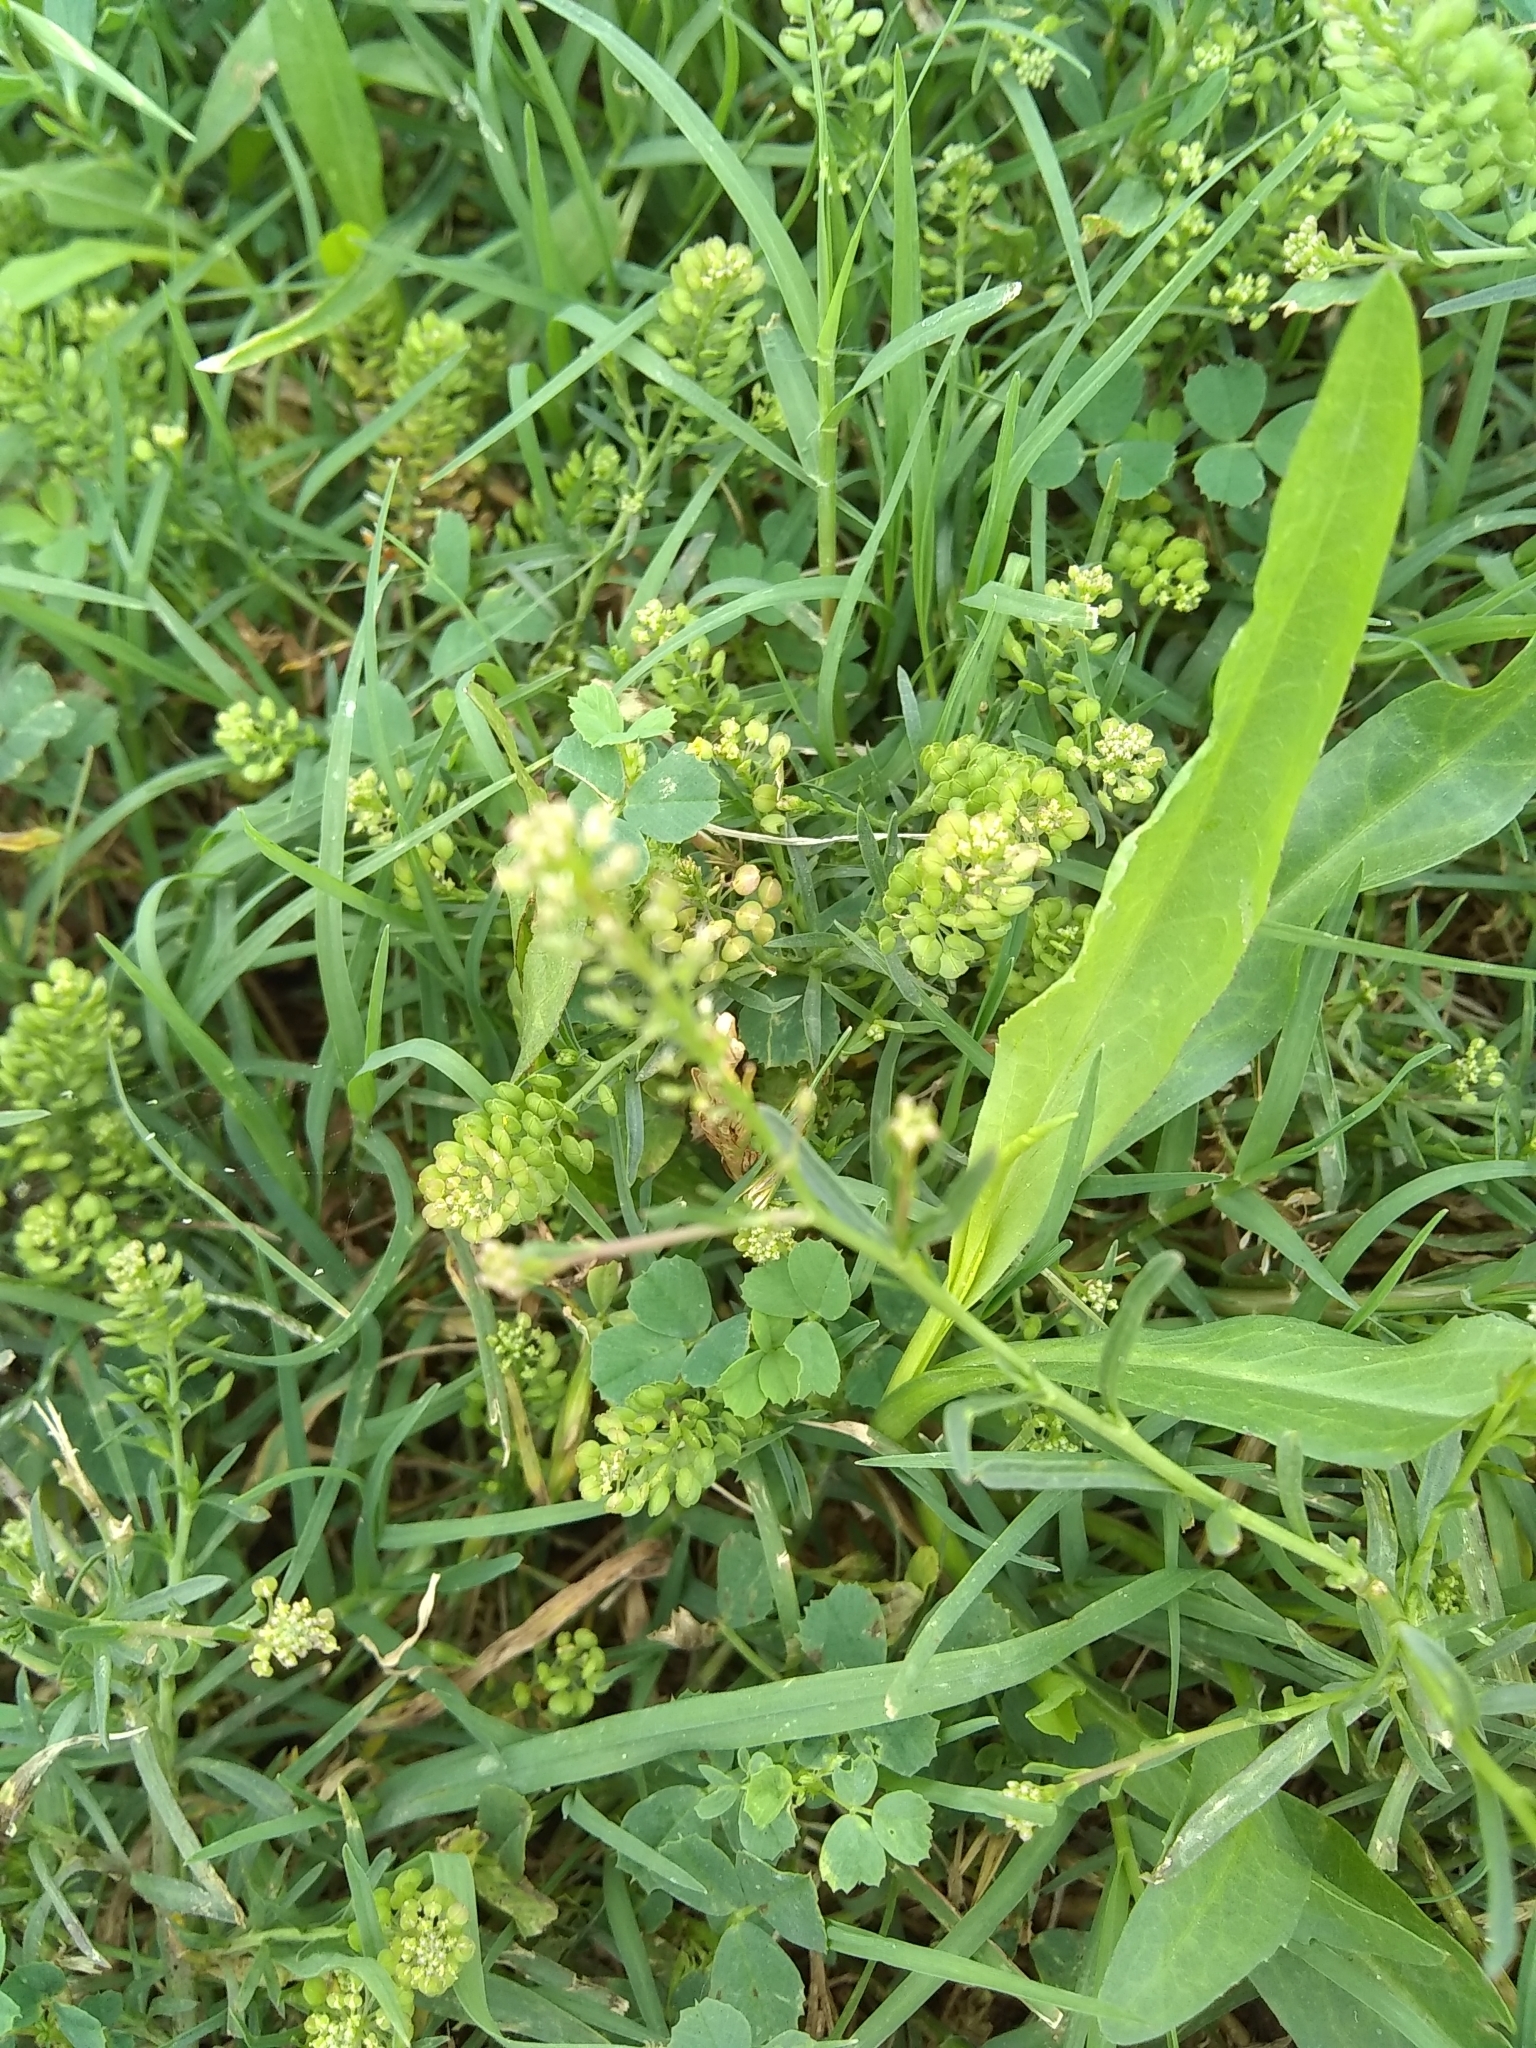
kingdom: Plantae
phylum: Tracheophyta
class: Magnoliopsida
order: Brassicales
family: Brassicaceae
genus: Lepidium
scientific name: Lepidium virginicum
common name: Least pepperwort
